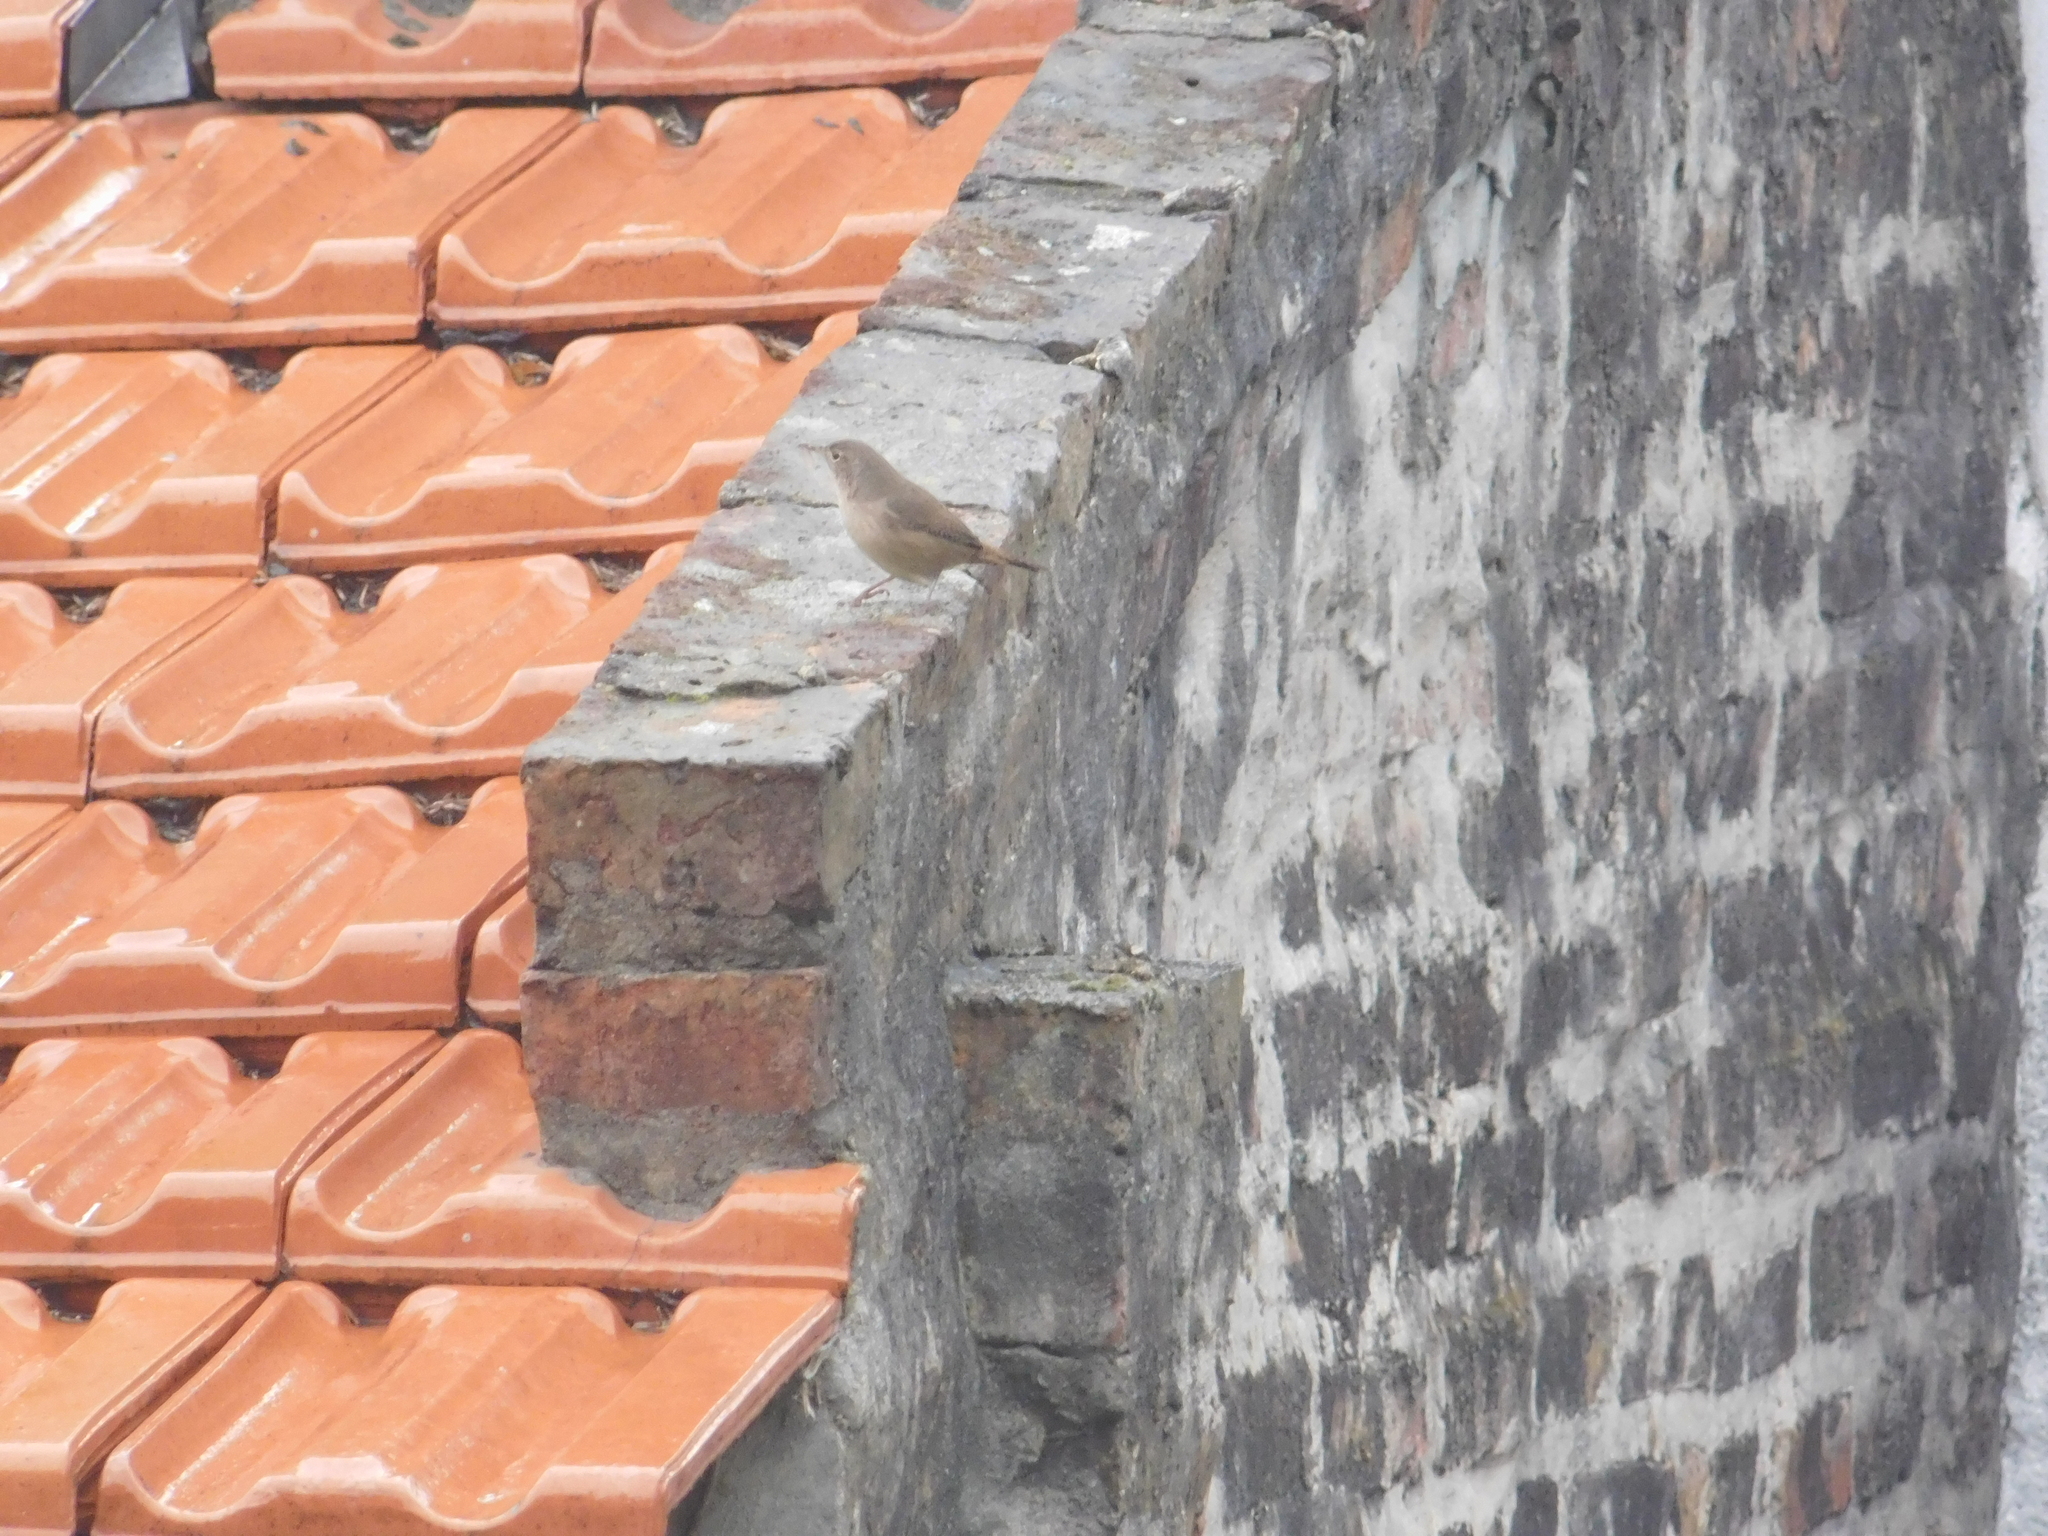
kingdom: Animalia
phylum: Chordata
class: Aves
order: Passeriformes
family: Troglodytidae
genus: Troglodytes
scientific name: Troglodytes aedon
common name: House wren
